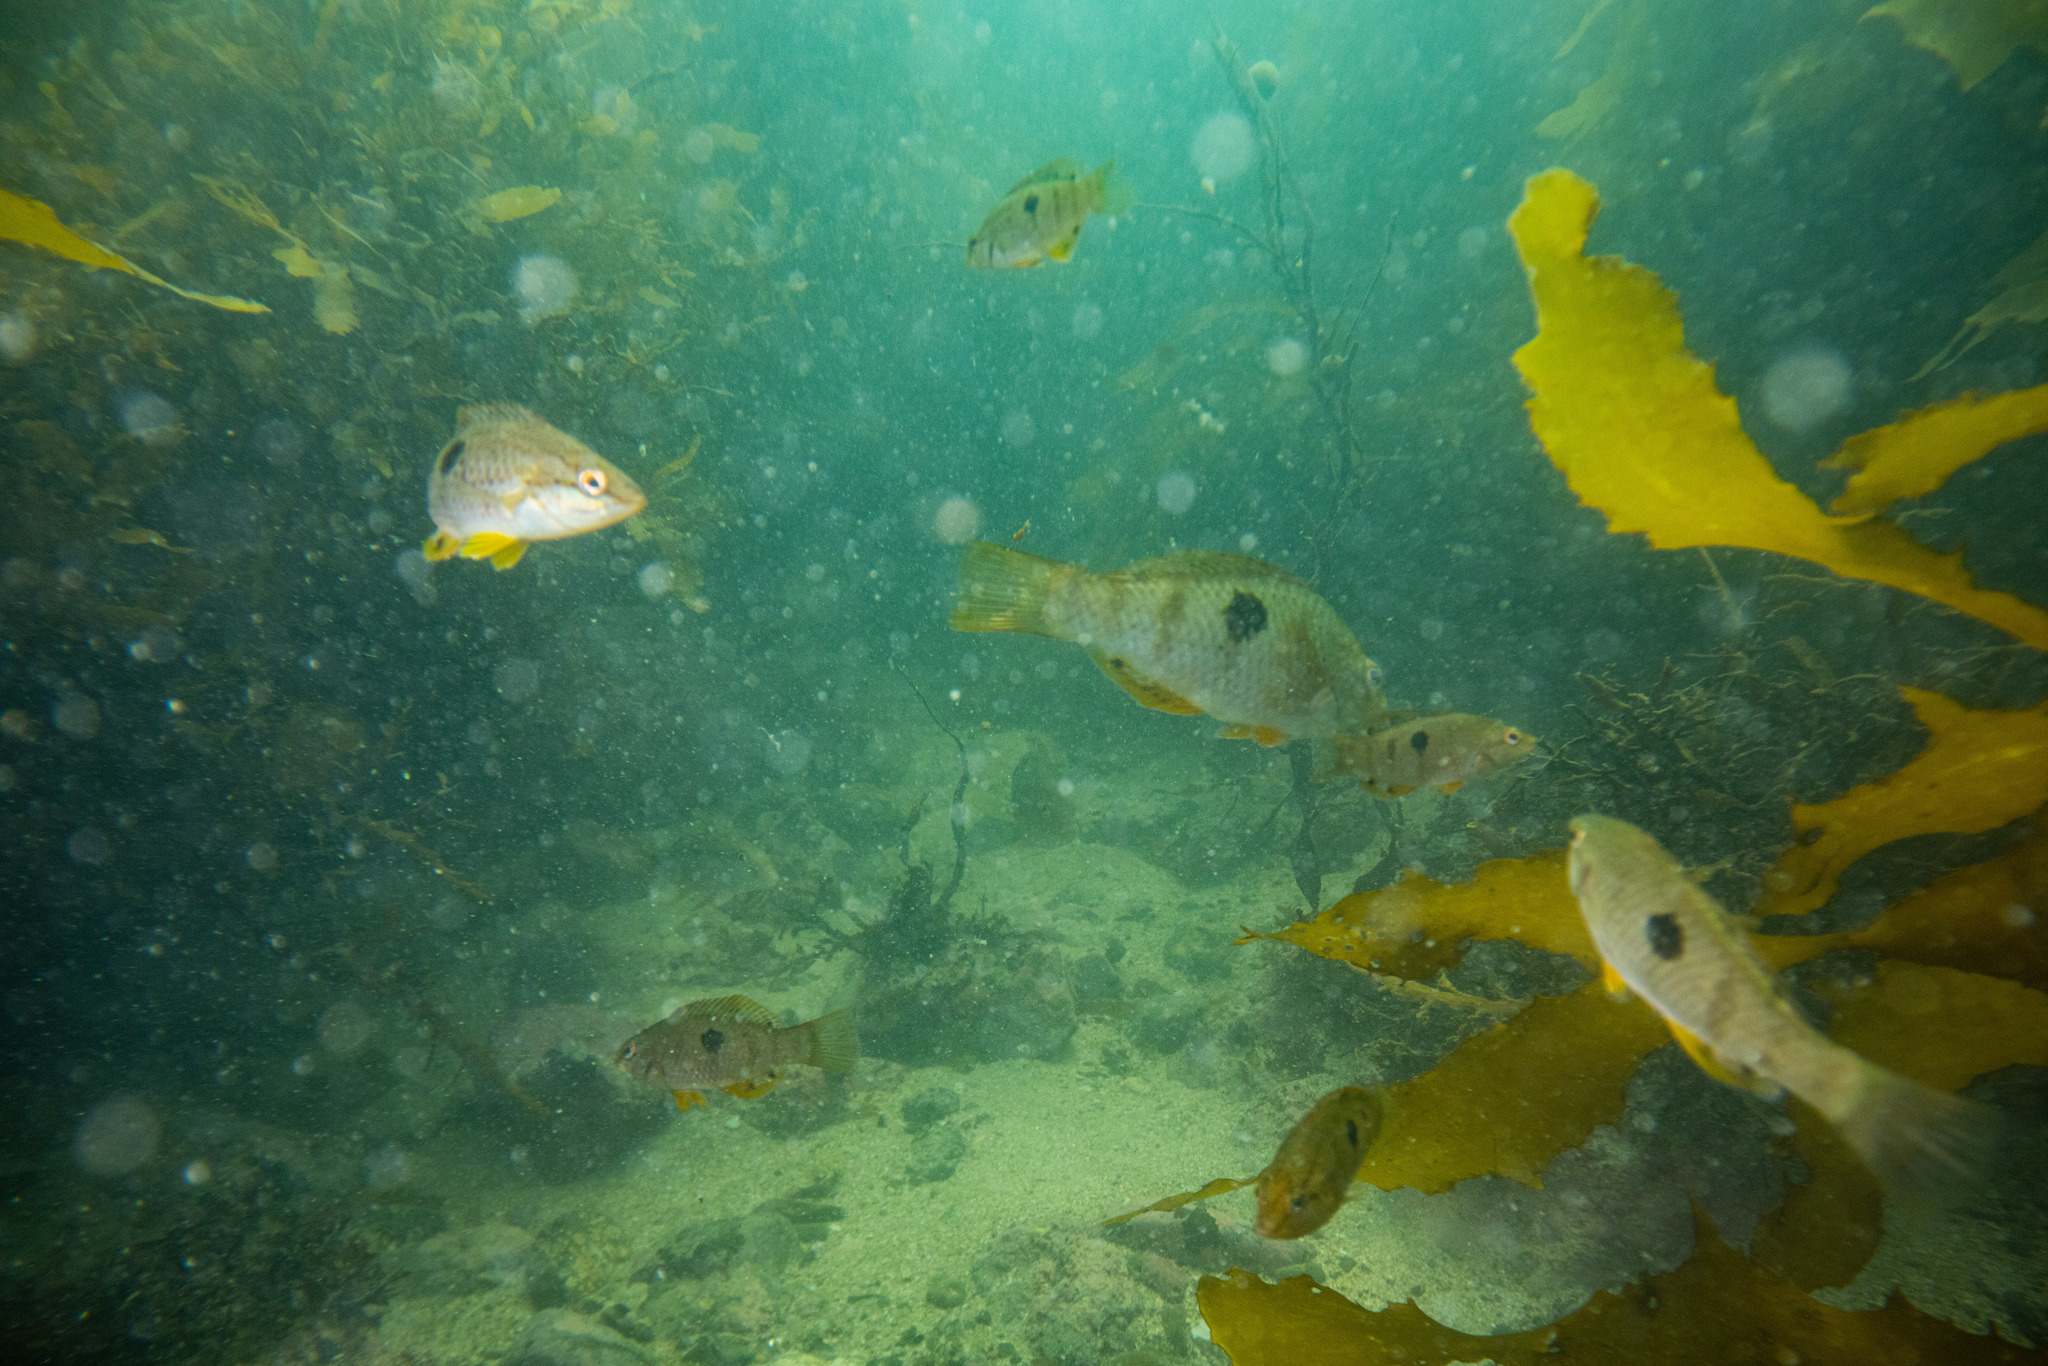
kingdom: Animalia
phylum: Chordata
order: Perciformes
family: Labridae
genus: Notolabrus
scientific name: Notolabrus celidotus
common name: Spotty
